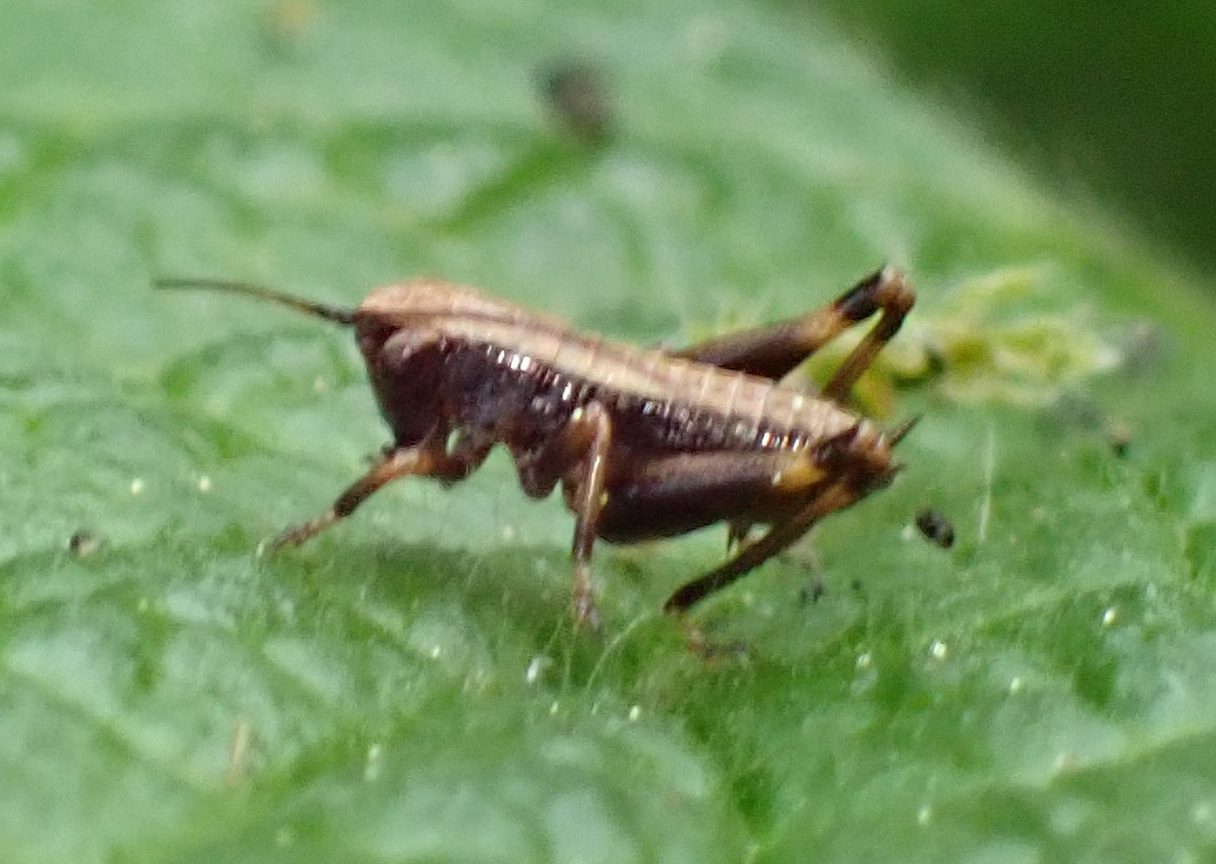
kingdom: Animalia
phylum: Arthropoda
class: Insecta
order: Orthoptera
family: Tettigoniidae
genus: Pholidoptera
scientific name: Pholidoptera griseoaptera
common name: Dark bush-cricket
